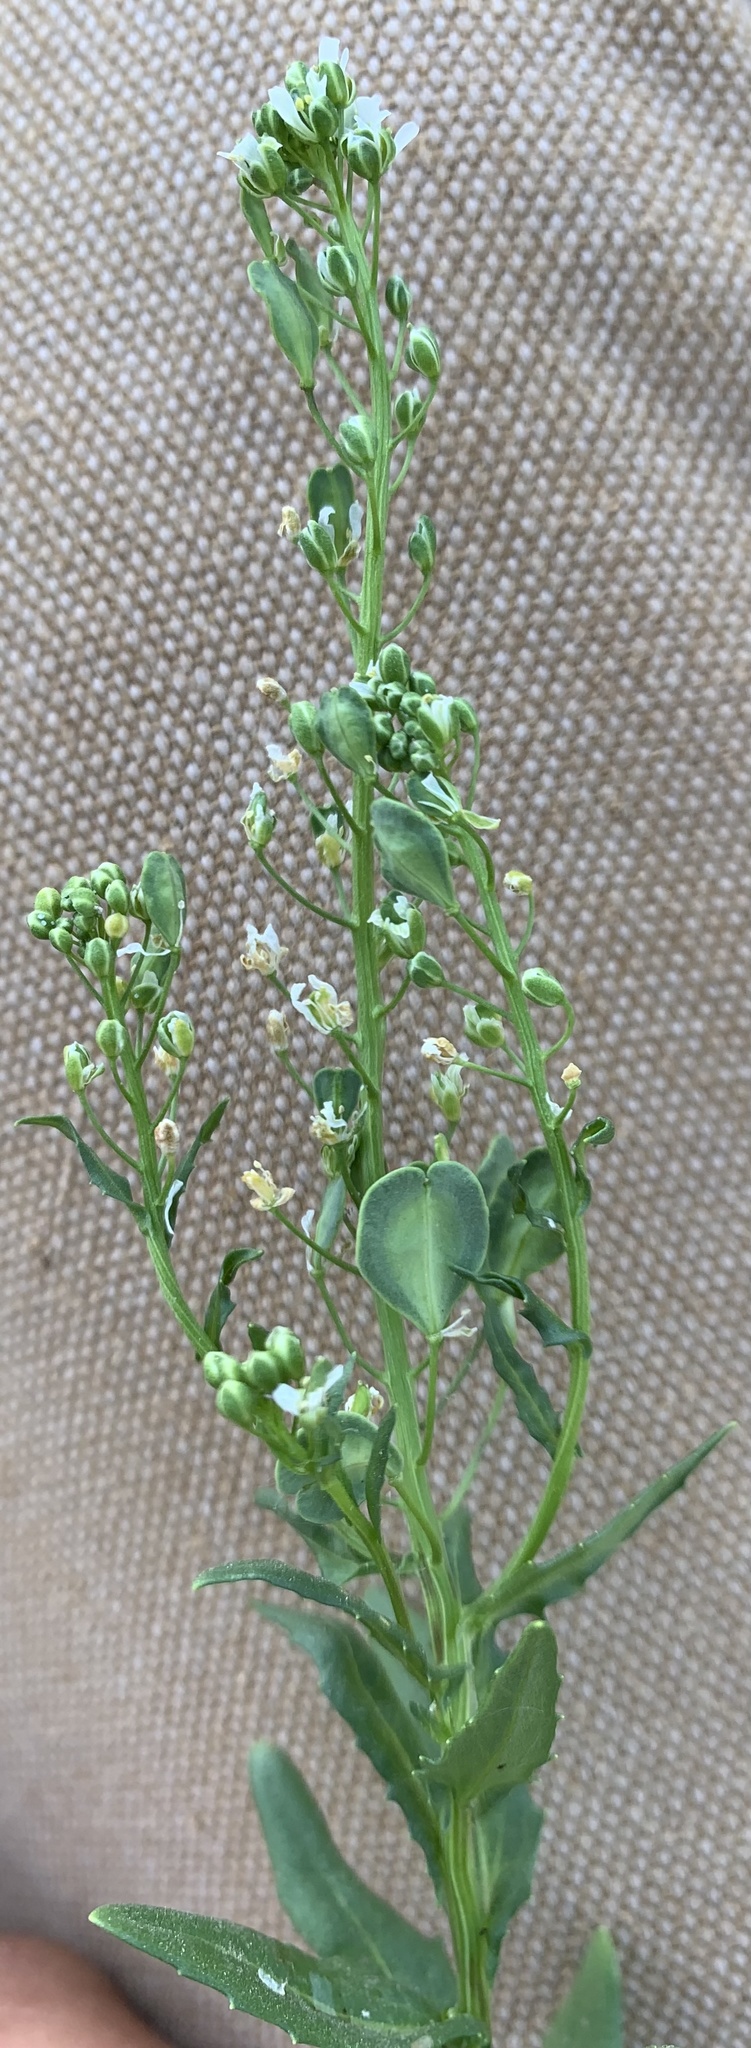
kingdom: Plantae
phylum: Tracheophyta
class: Magnoliopsida
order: Brassicales
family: Brassicaceae
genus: Thlaspi
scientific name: Thlaspi arvense
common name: Field pennycress
